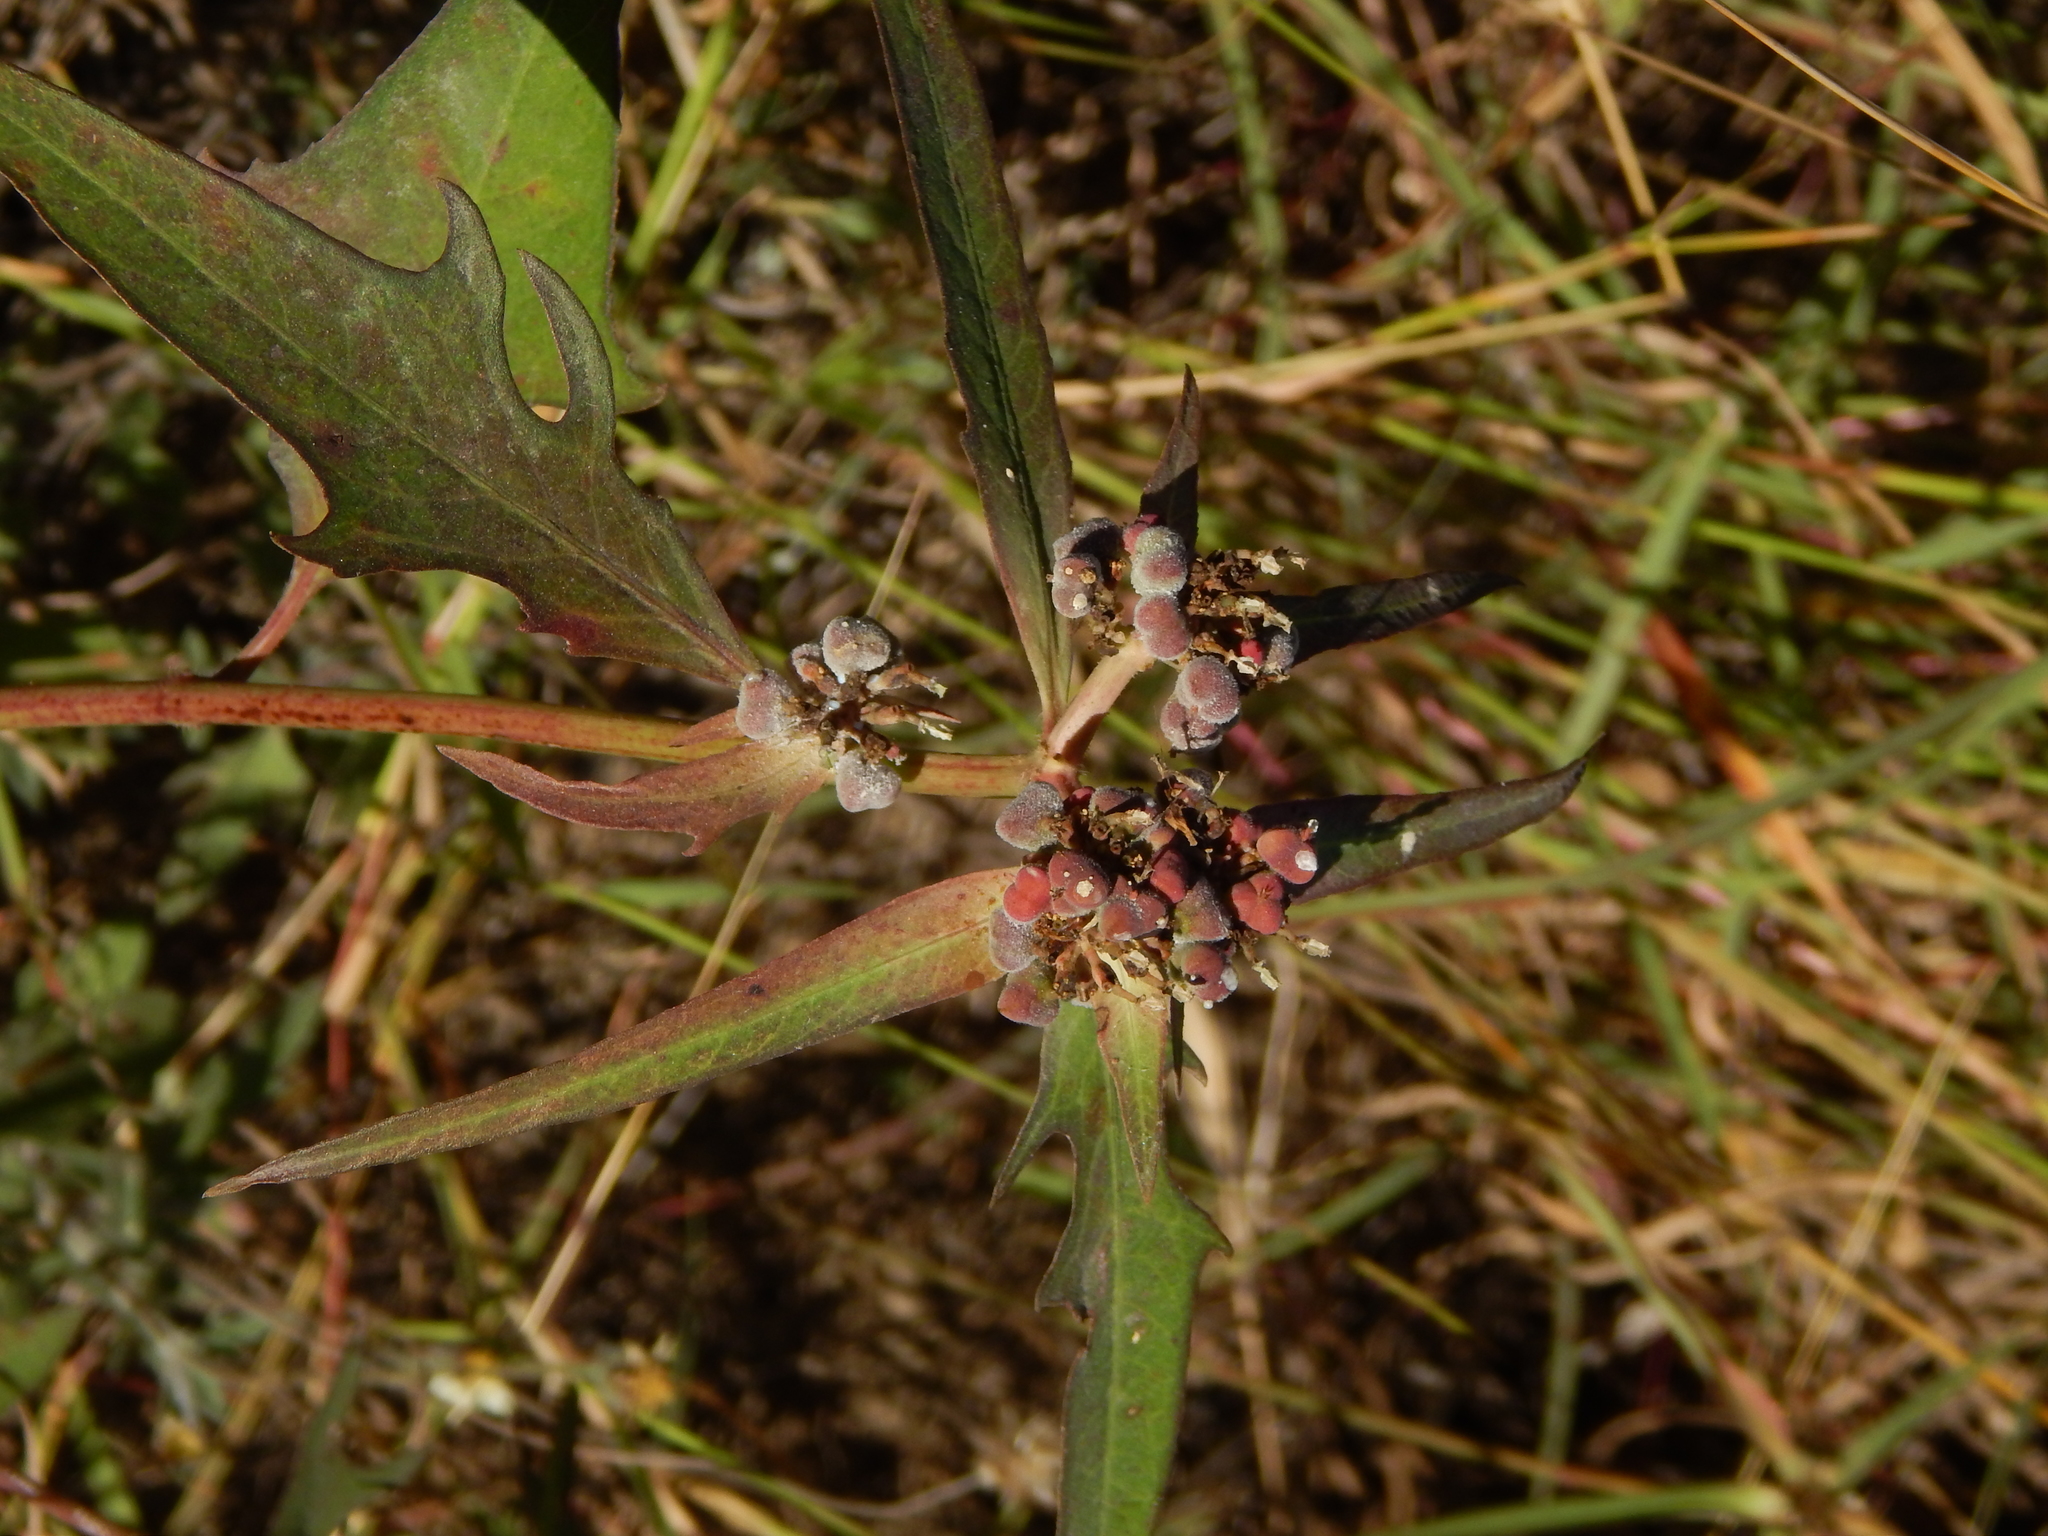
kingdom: Plantae
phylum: Tracheophyta
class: Magnoliopsida
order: Malpighiales
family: Euphorbiaceae
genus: Euphorbia
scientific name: Euphorbia heterophylla
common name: Mexican fireplant
